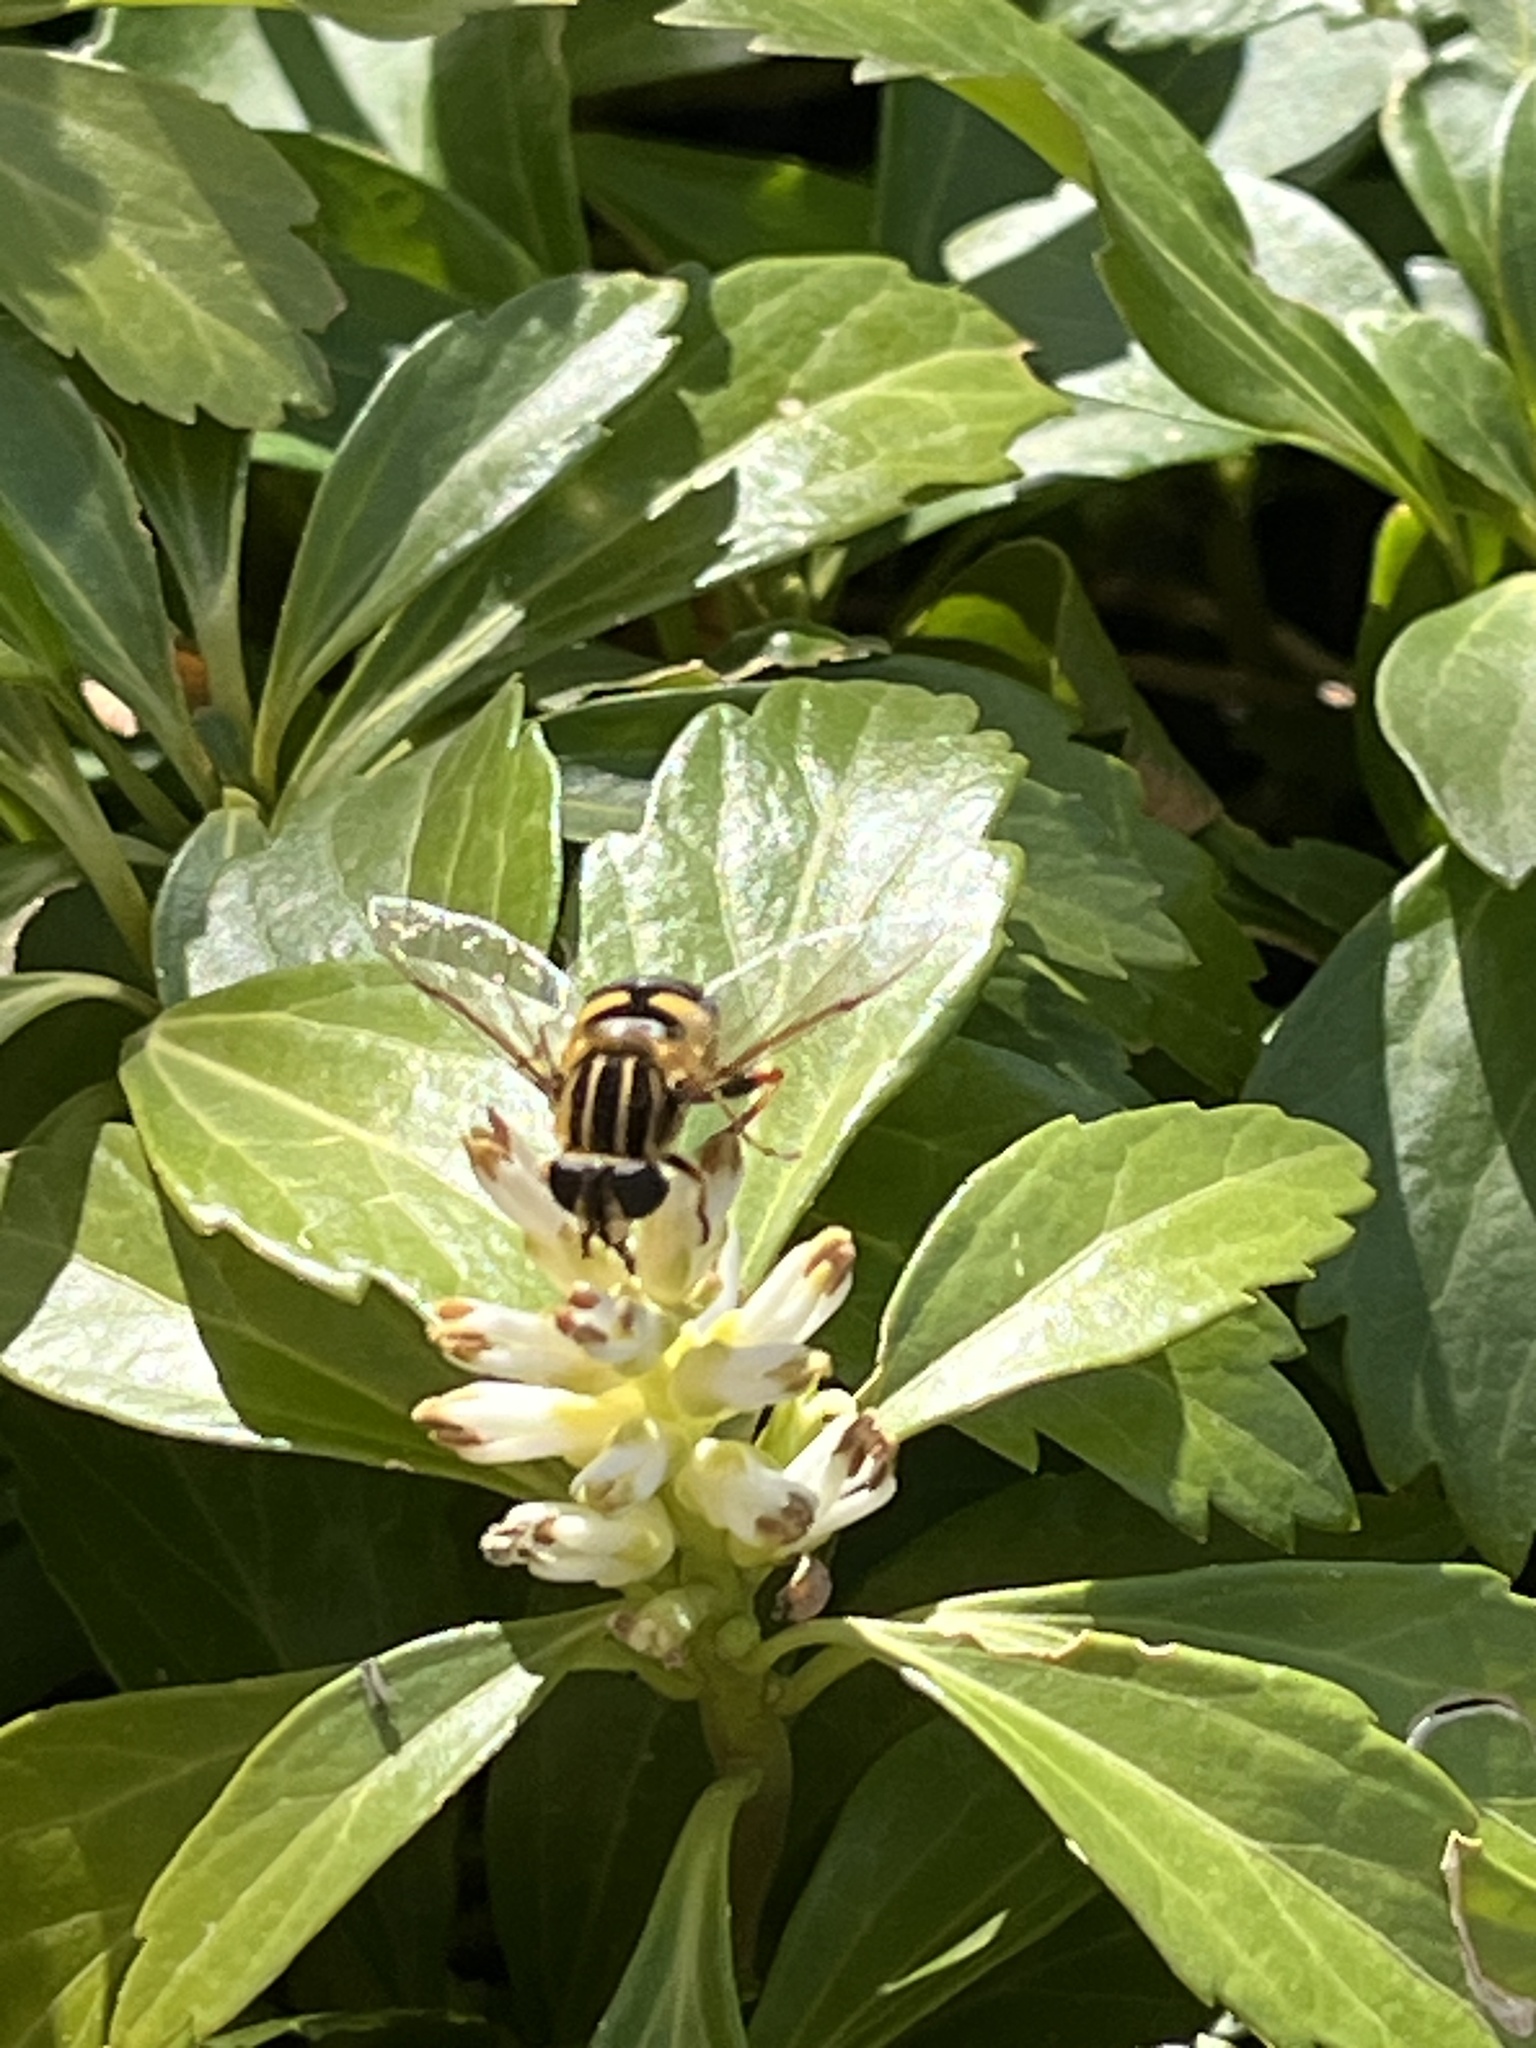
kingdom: Animalia
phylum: Arthropoda
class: Insecta
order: Diptera
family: Syrphidae
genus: Helophilus
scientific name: Helophilus fasciatus
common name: Narrow-headed marsh fly
